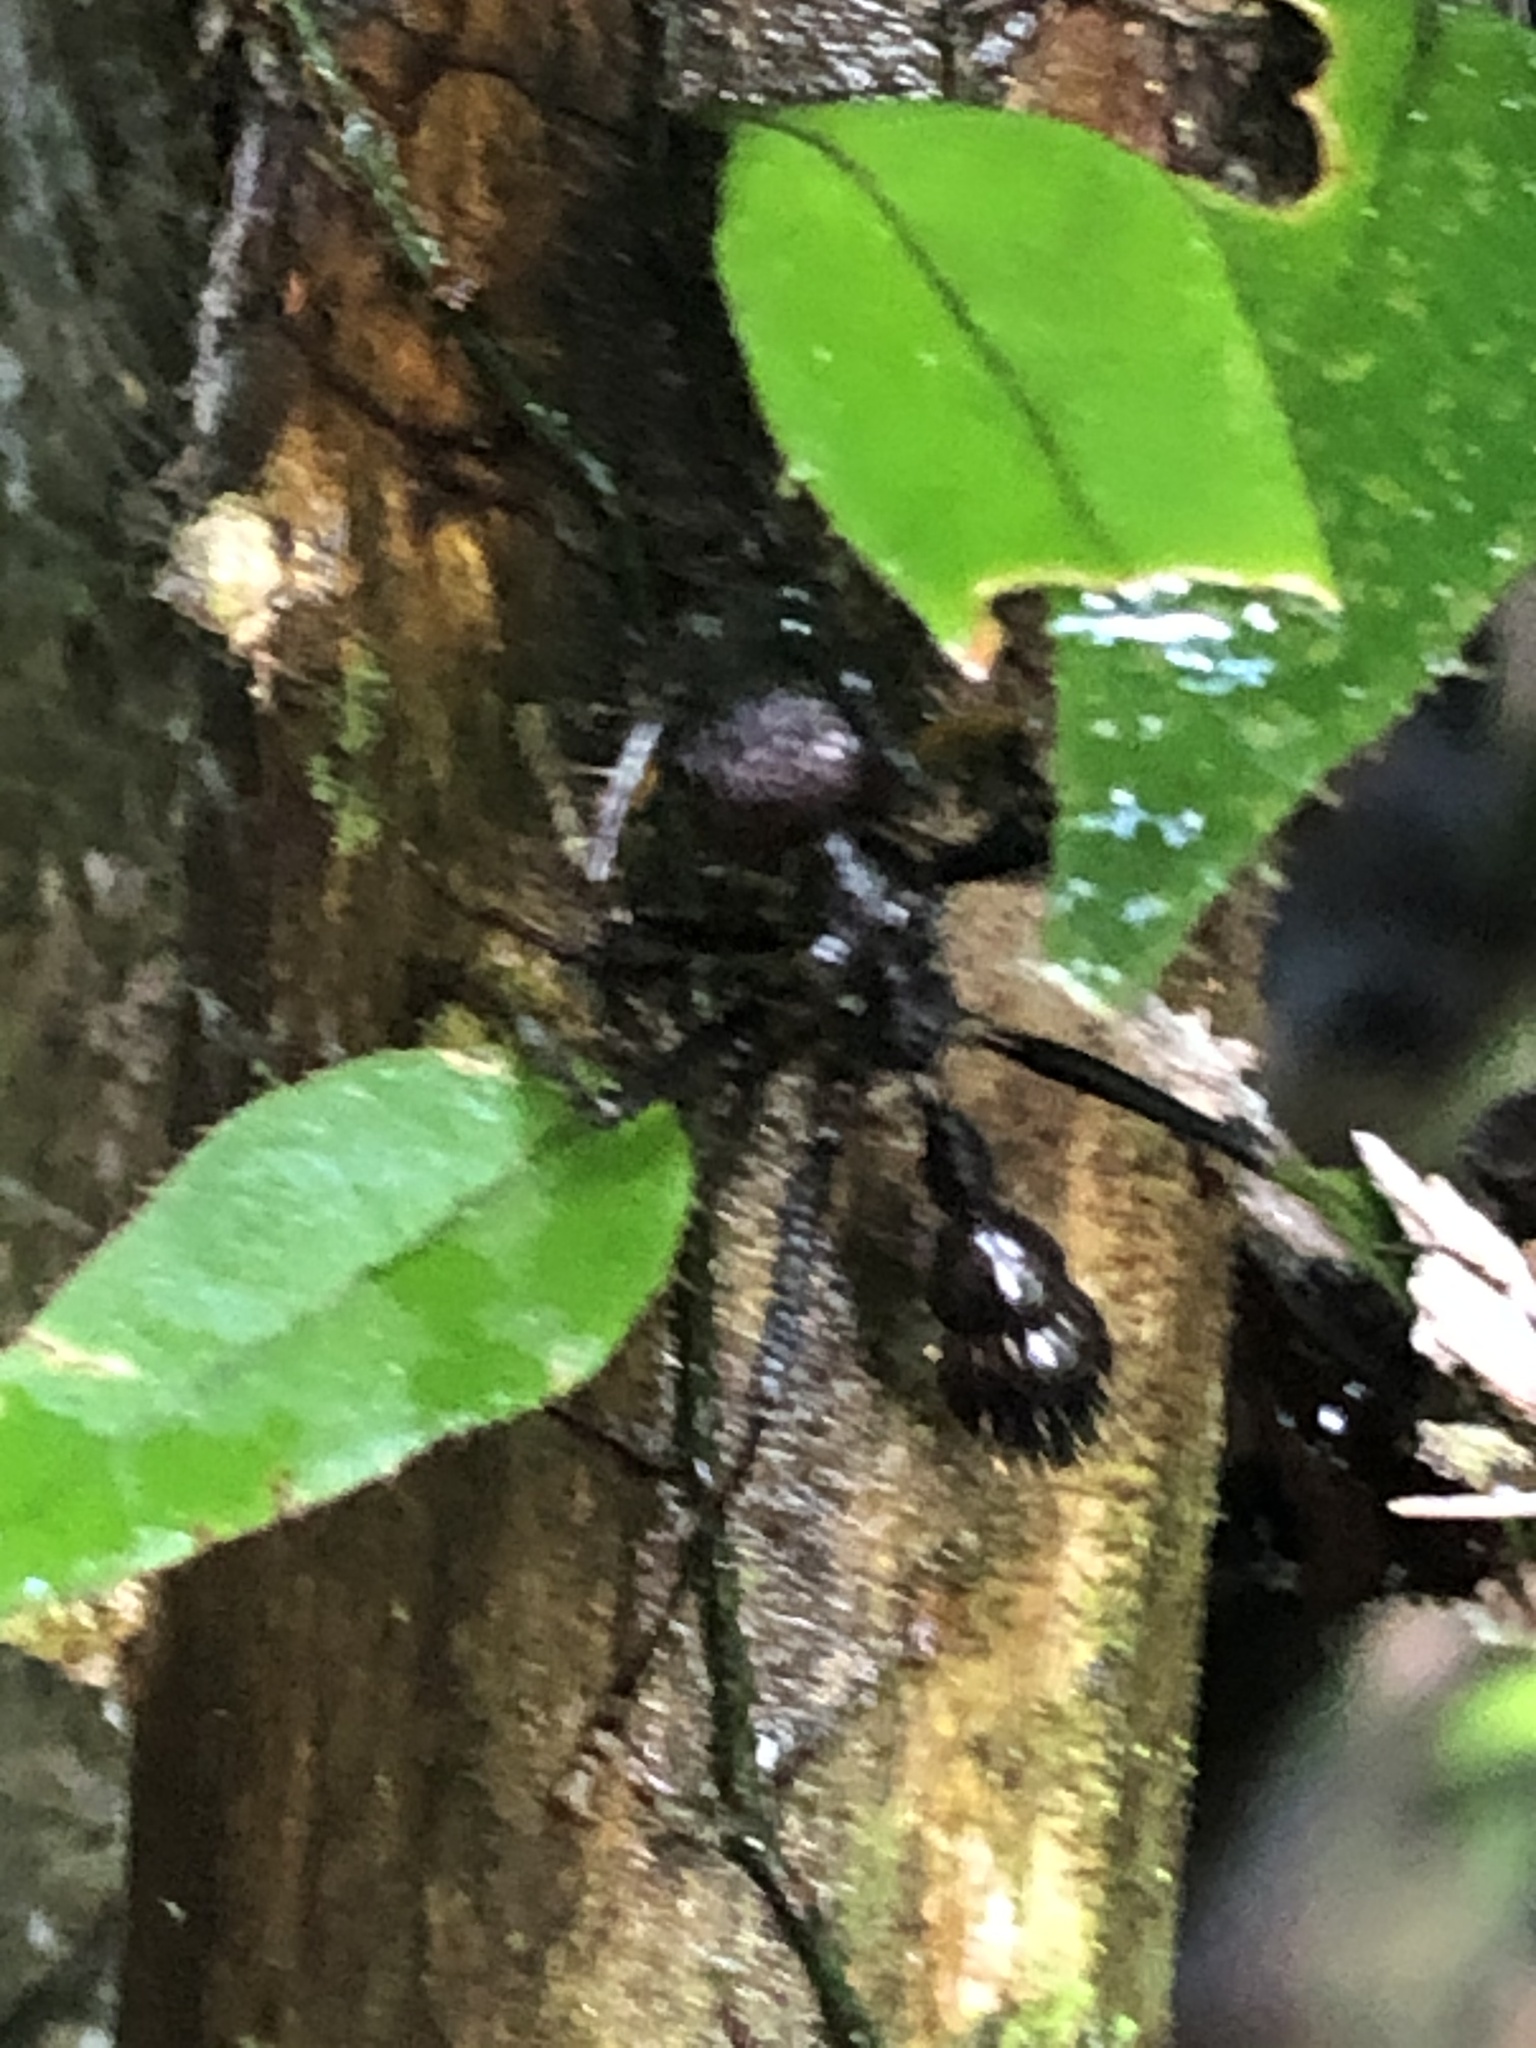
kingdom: Animalia
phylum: Arthropoda
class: Insecta
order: Hymenoptera
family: Formicidae
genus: Paraponera
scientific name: Paraponera clavata
